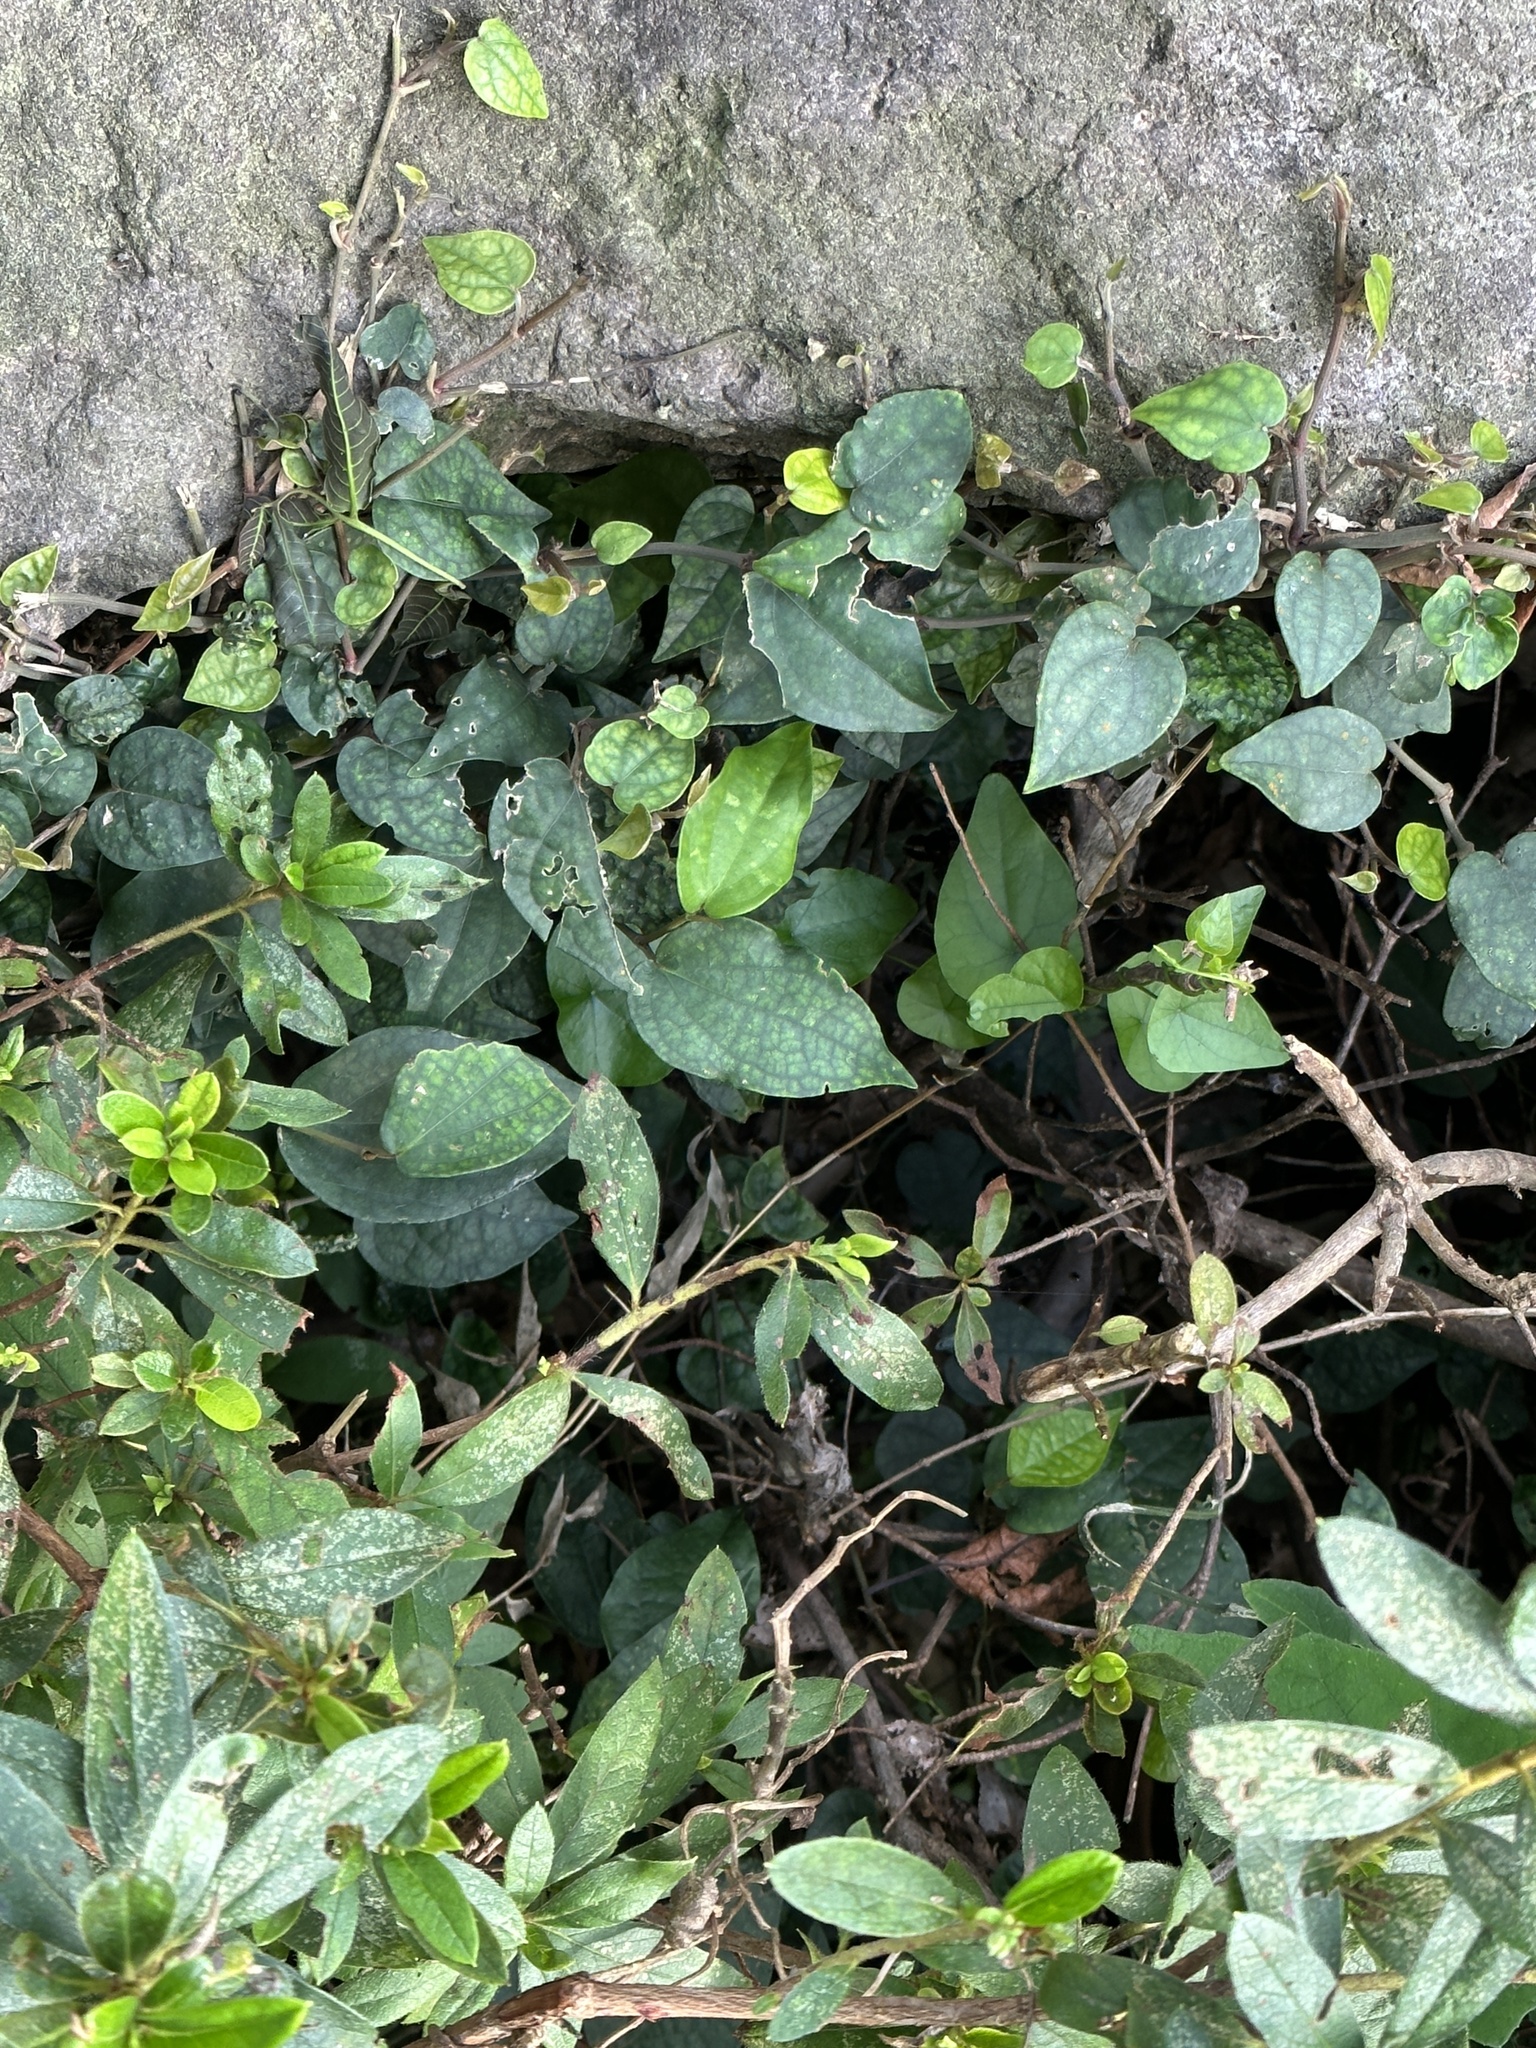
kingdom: Plantae
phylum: Tracheophyta
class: Magnoliopsida
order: Piperales
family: Piperaceae
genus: Piper
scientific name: Piper kadsura
